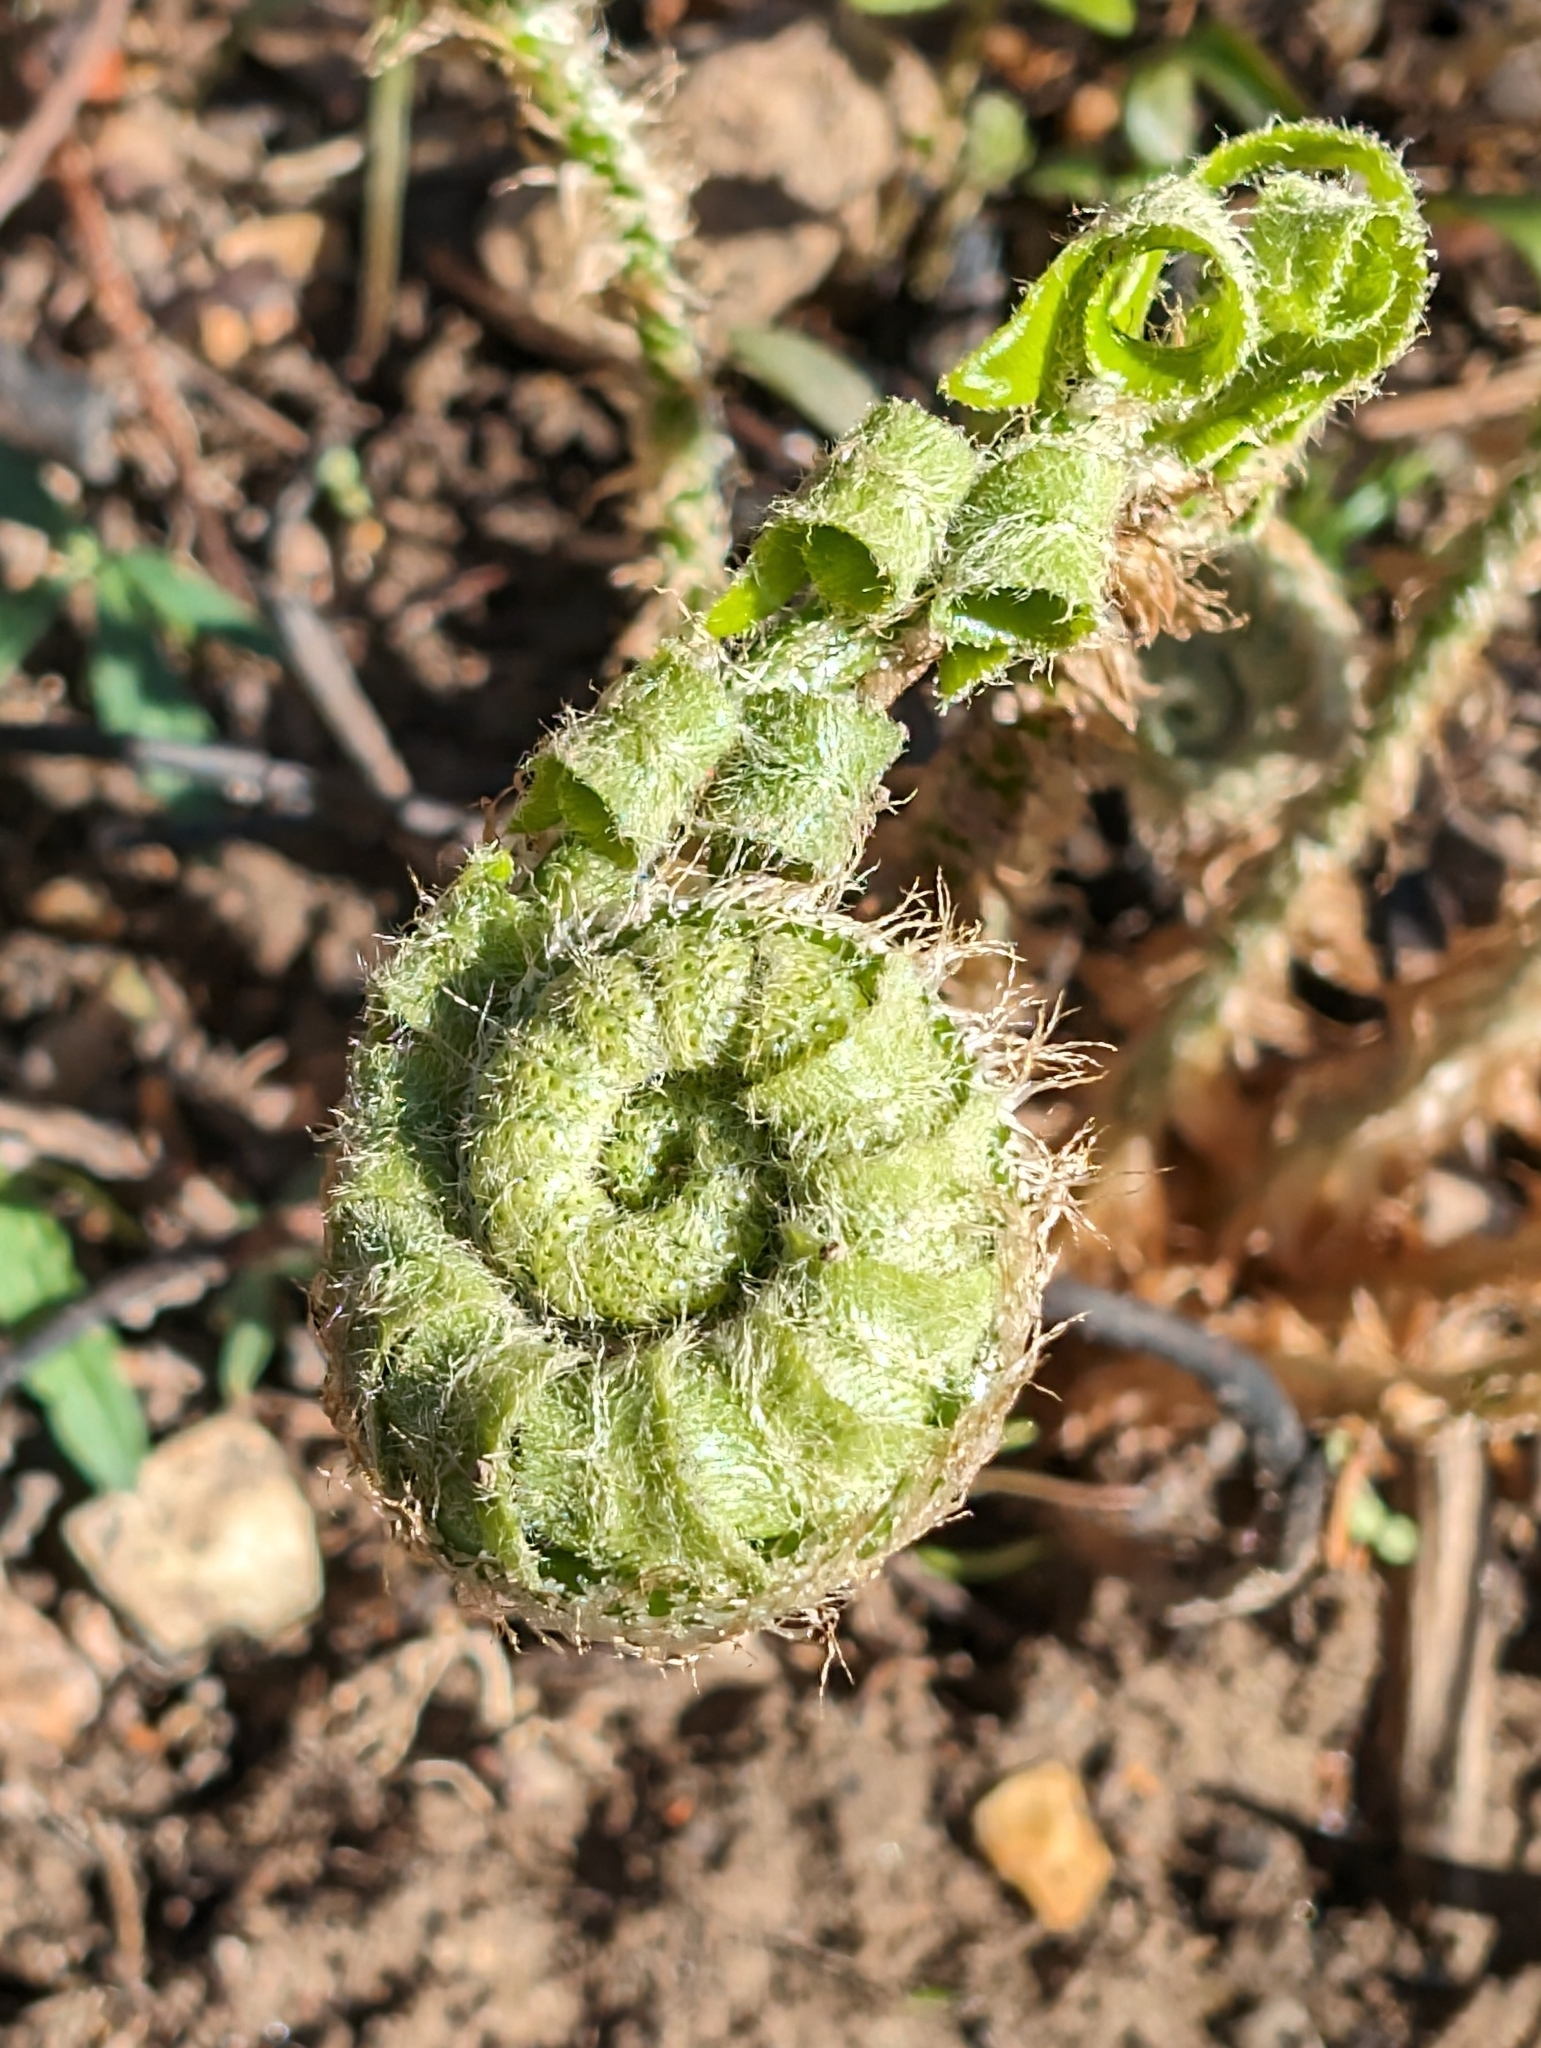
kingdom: Plantae
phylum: Tracheophyta
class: Polypodiopsida
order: Polypodiales
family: Dryopteridaceae
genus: Polystichum
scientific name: Polystichum acrostichoides
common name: Christmas fern
